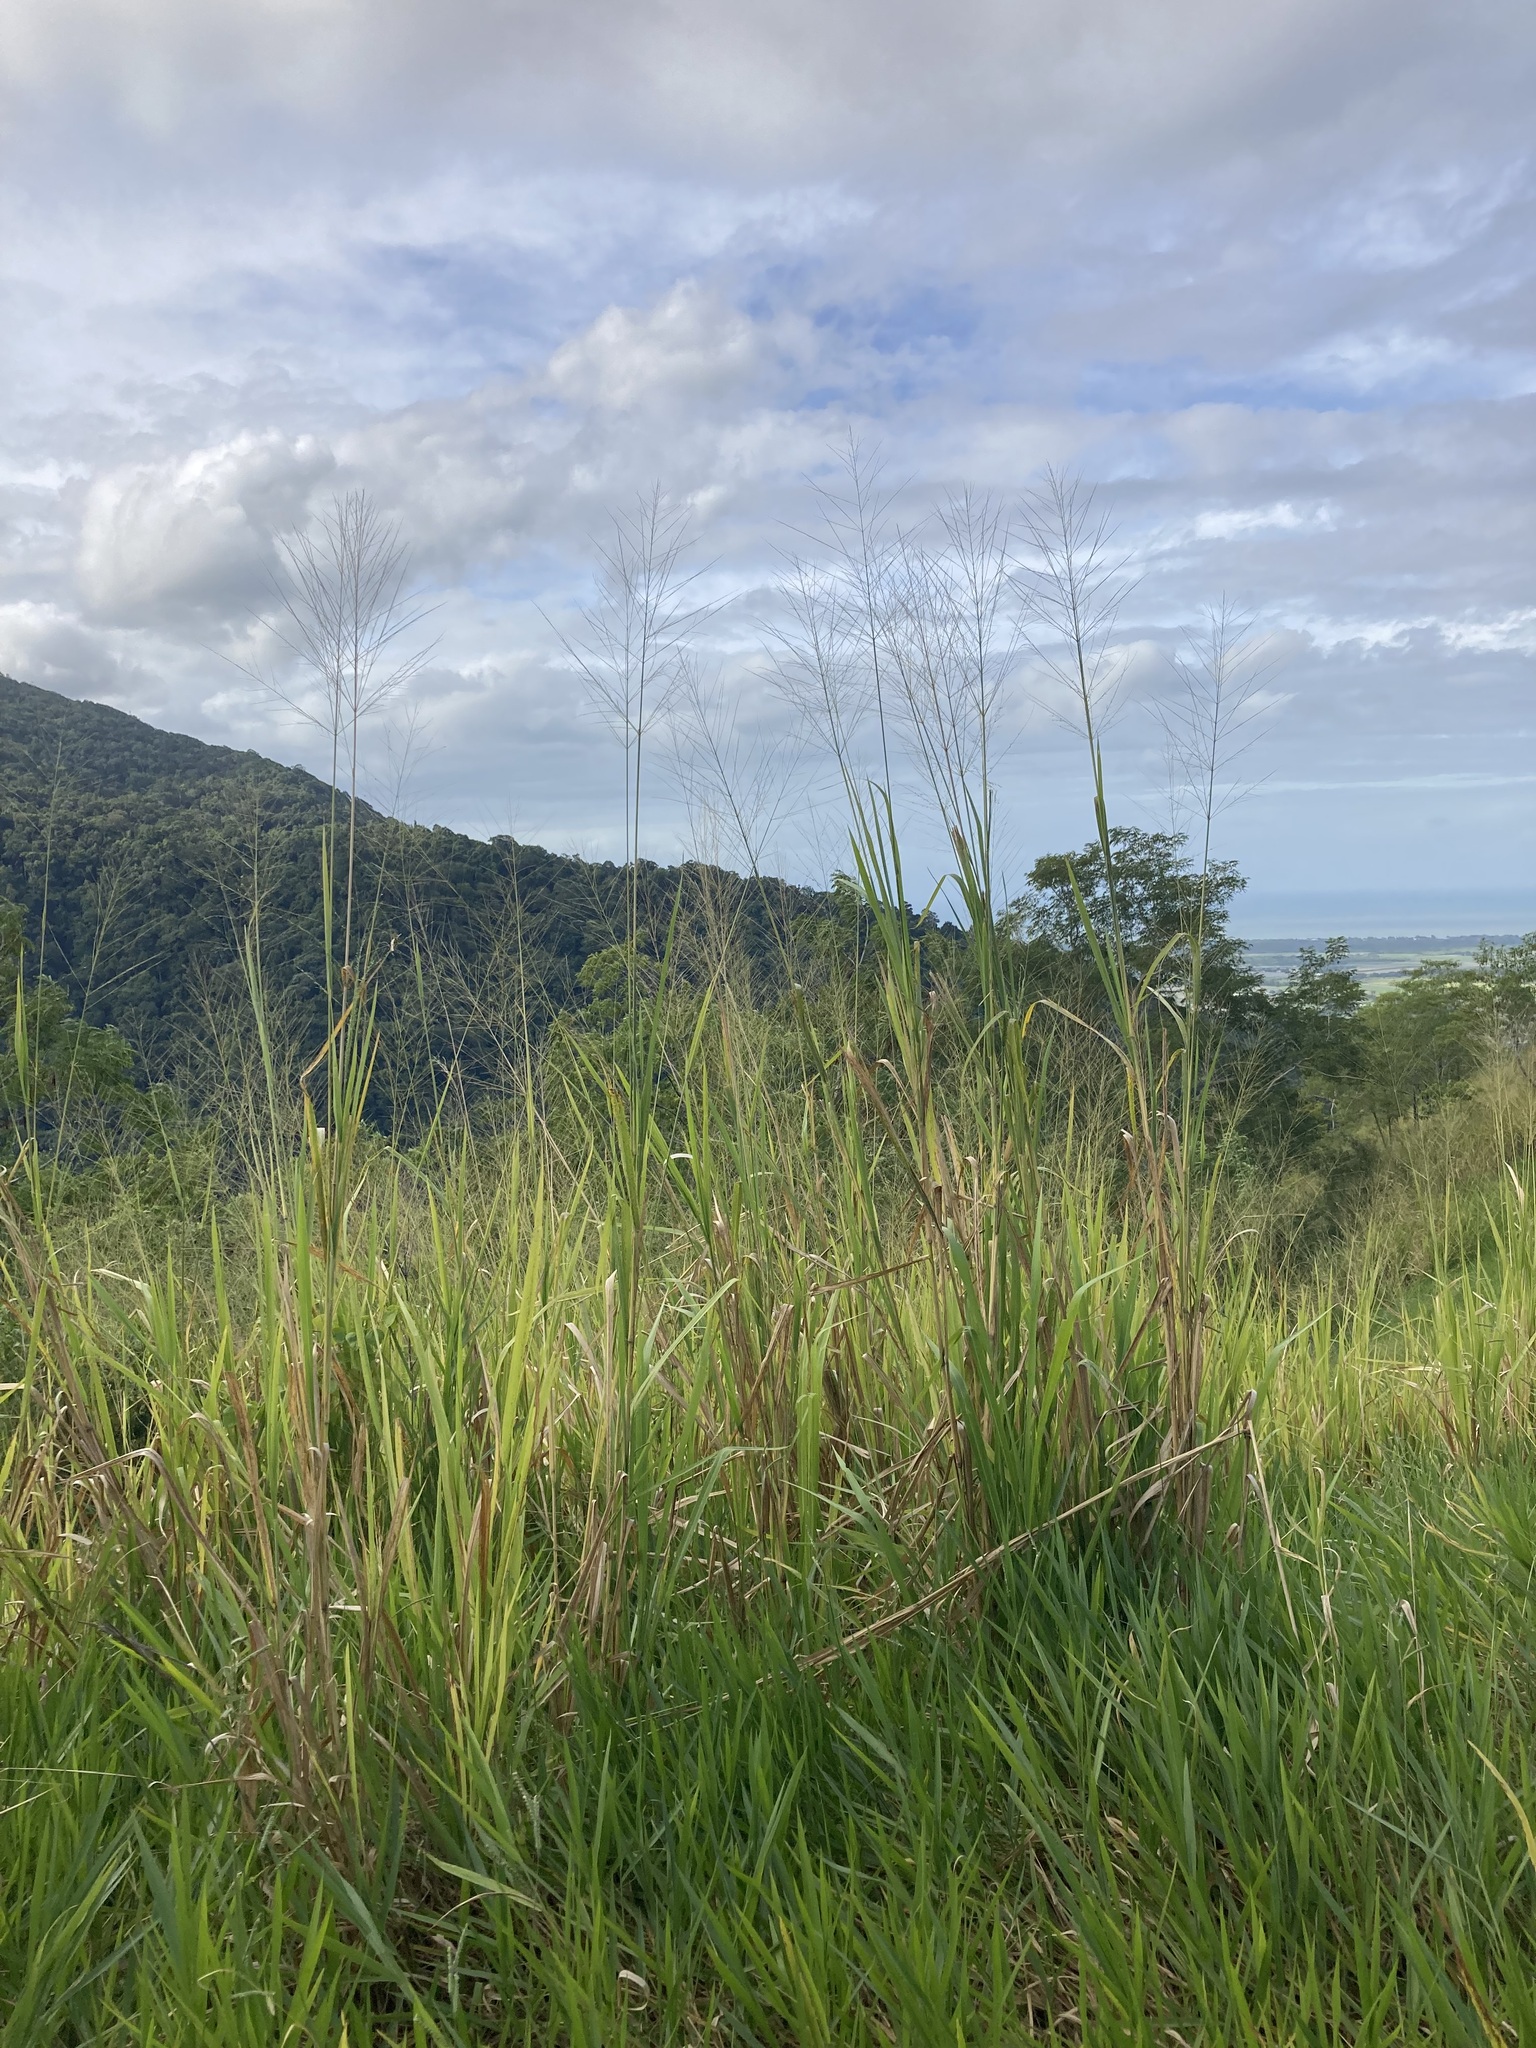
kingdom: Plantae
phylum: Tracheophyta
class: Liliopsida
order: Poales
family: Poaceae
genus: Megathyrsus
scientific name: Megathyrsus maximus
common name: Guineagrass
